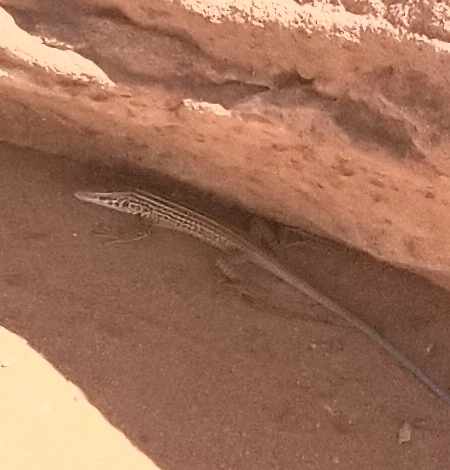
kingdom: Animalia
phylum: Chordata
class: Squamata
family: Teiidae
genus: Aspidoscelis
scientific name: Aspidoscelis tigris
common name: Tiger whiptail
